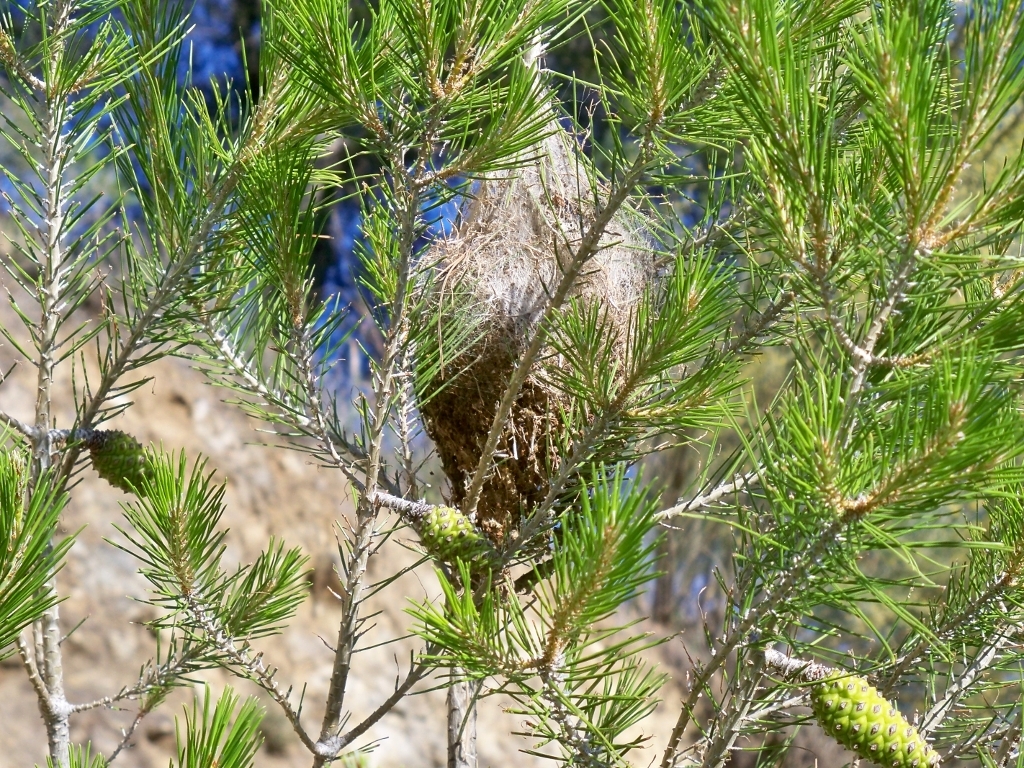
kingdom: Animalia
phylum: Arthropoda
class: Insecta
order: Lepidoptera
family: Notodontidae
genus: Thaumetopoea
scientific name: Thaumetopoea pityocampa
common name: Pine processionary
